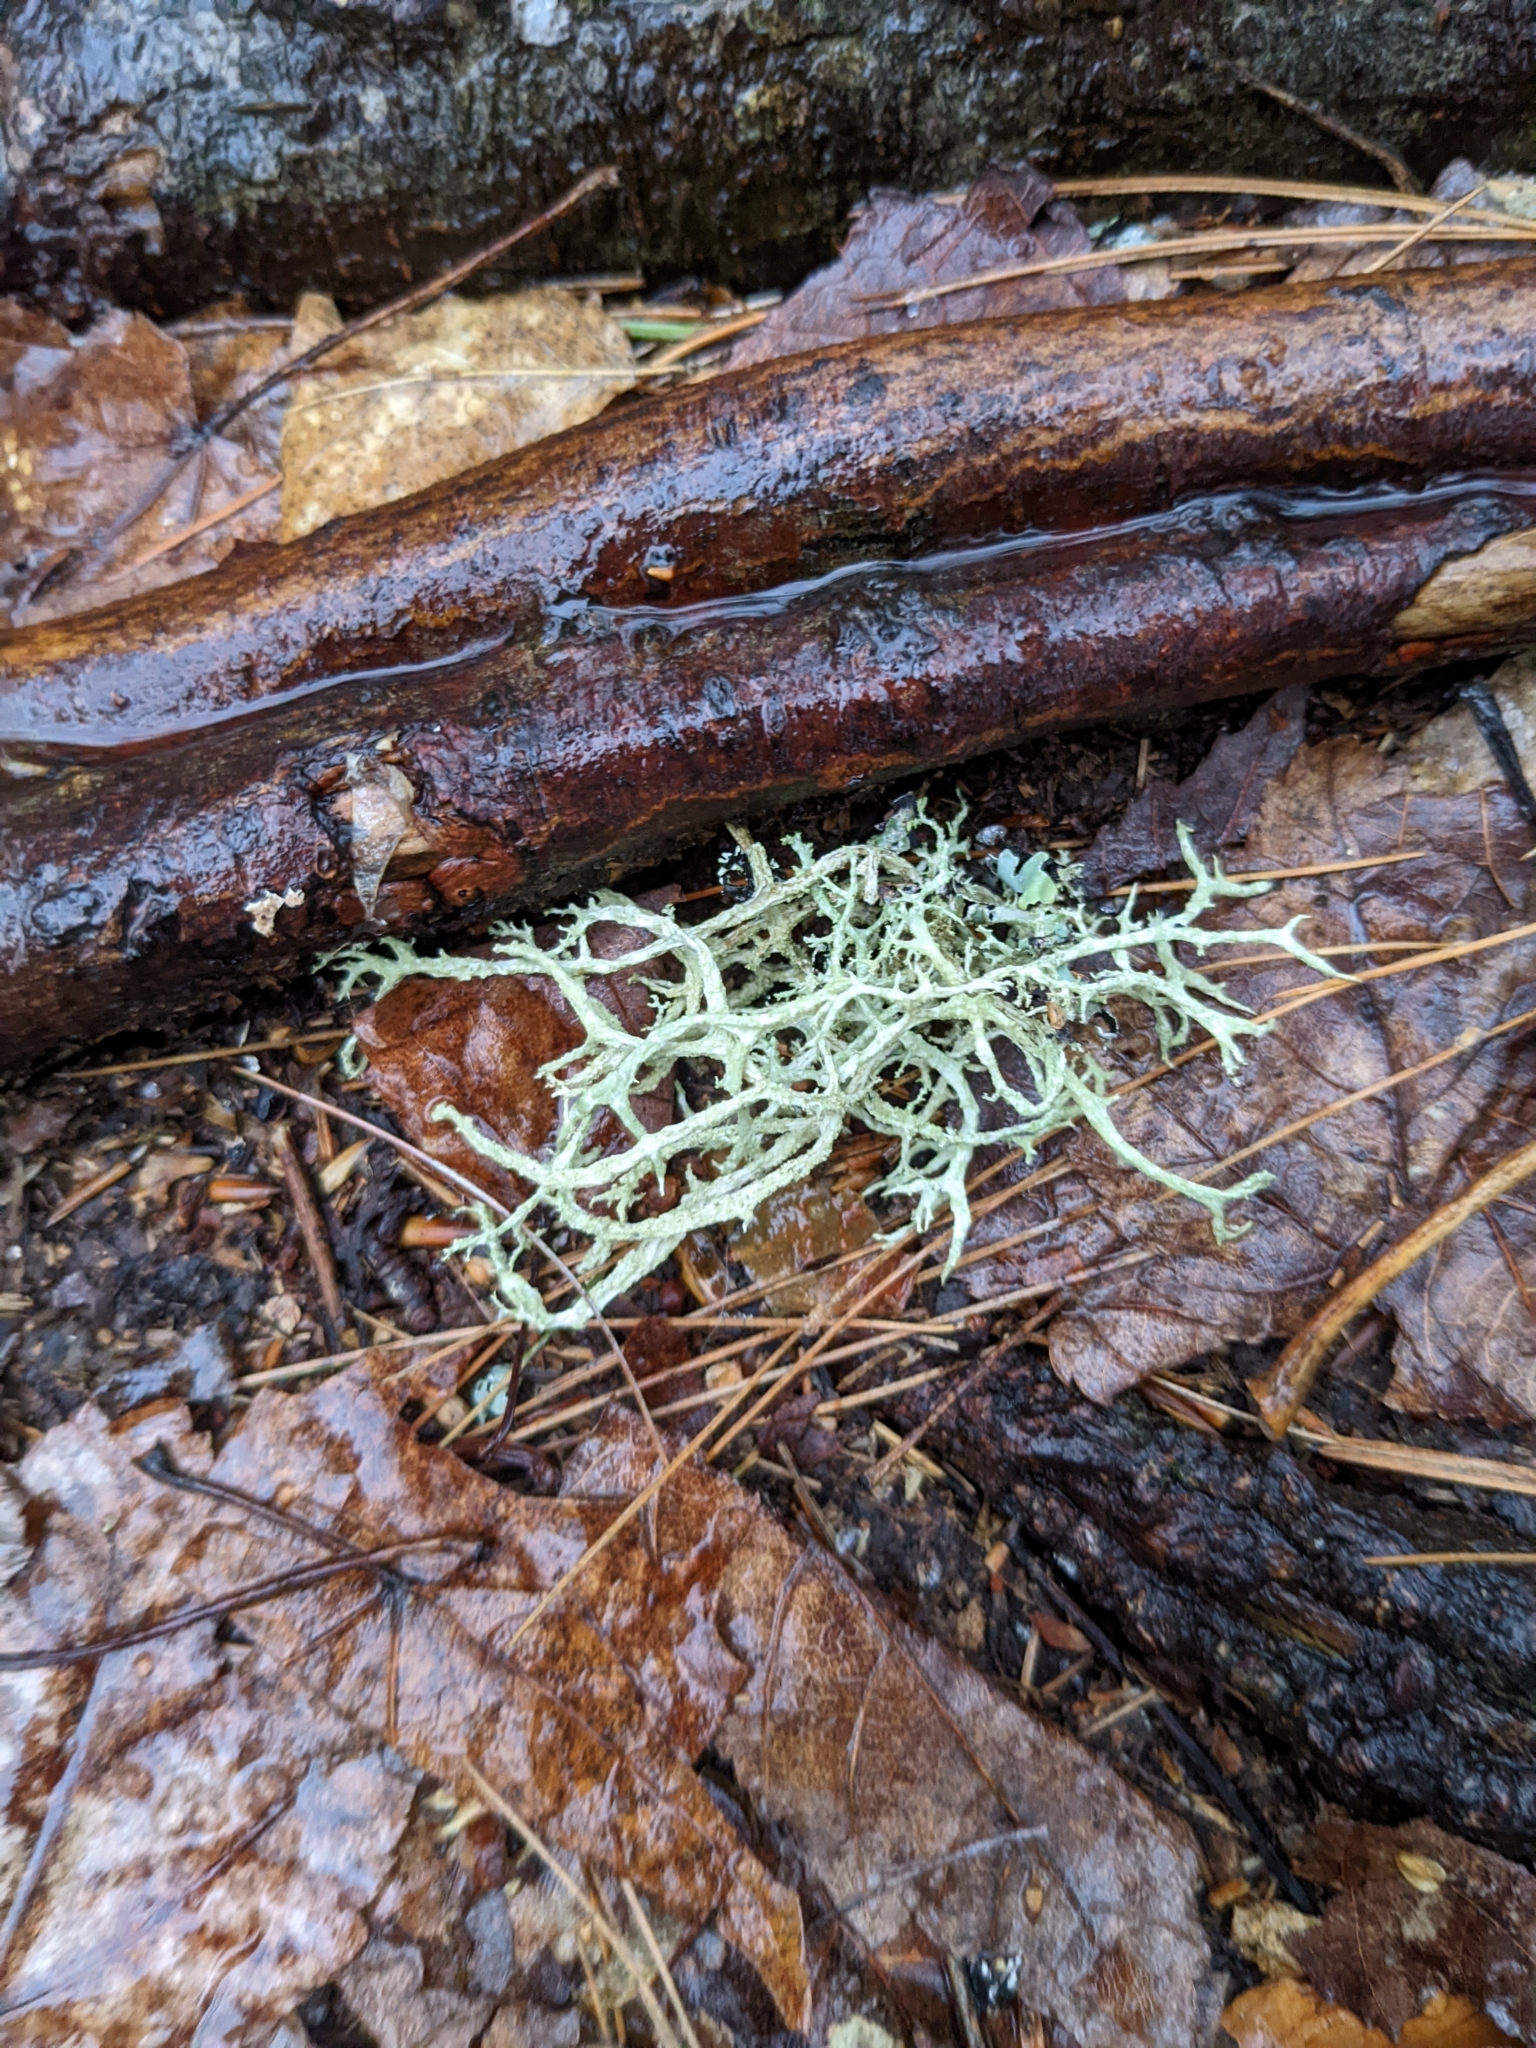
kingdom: Fungi
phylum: Ascomycota
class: Lecanoromycetes
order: Lecanorales
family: Parmeliaceae
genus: Evernia
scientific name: Evernia mesomorpha
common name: Boreal oak moss lichen
